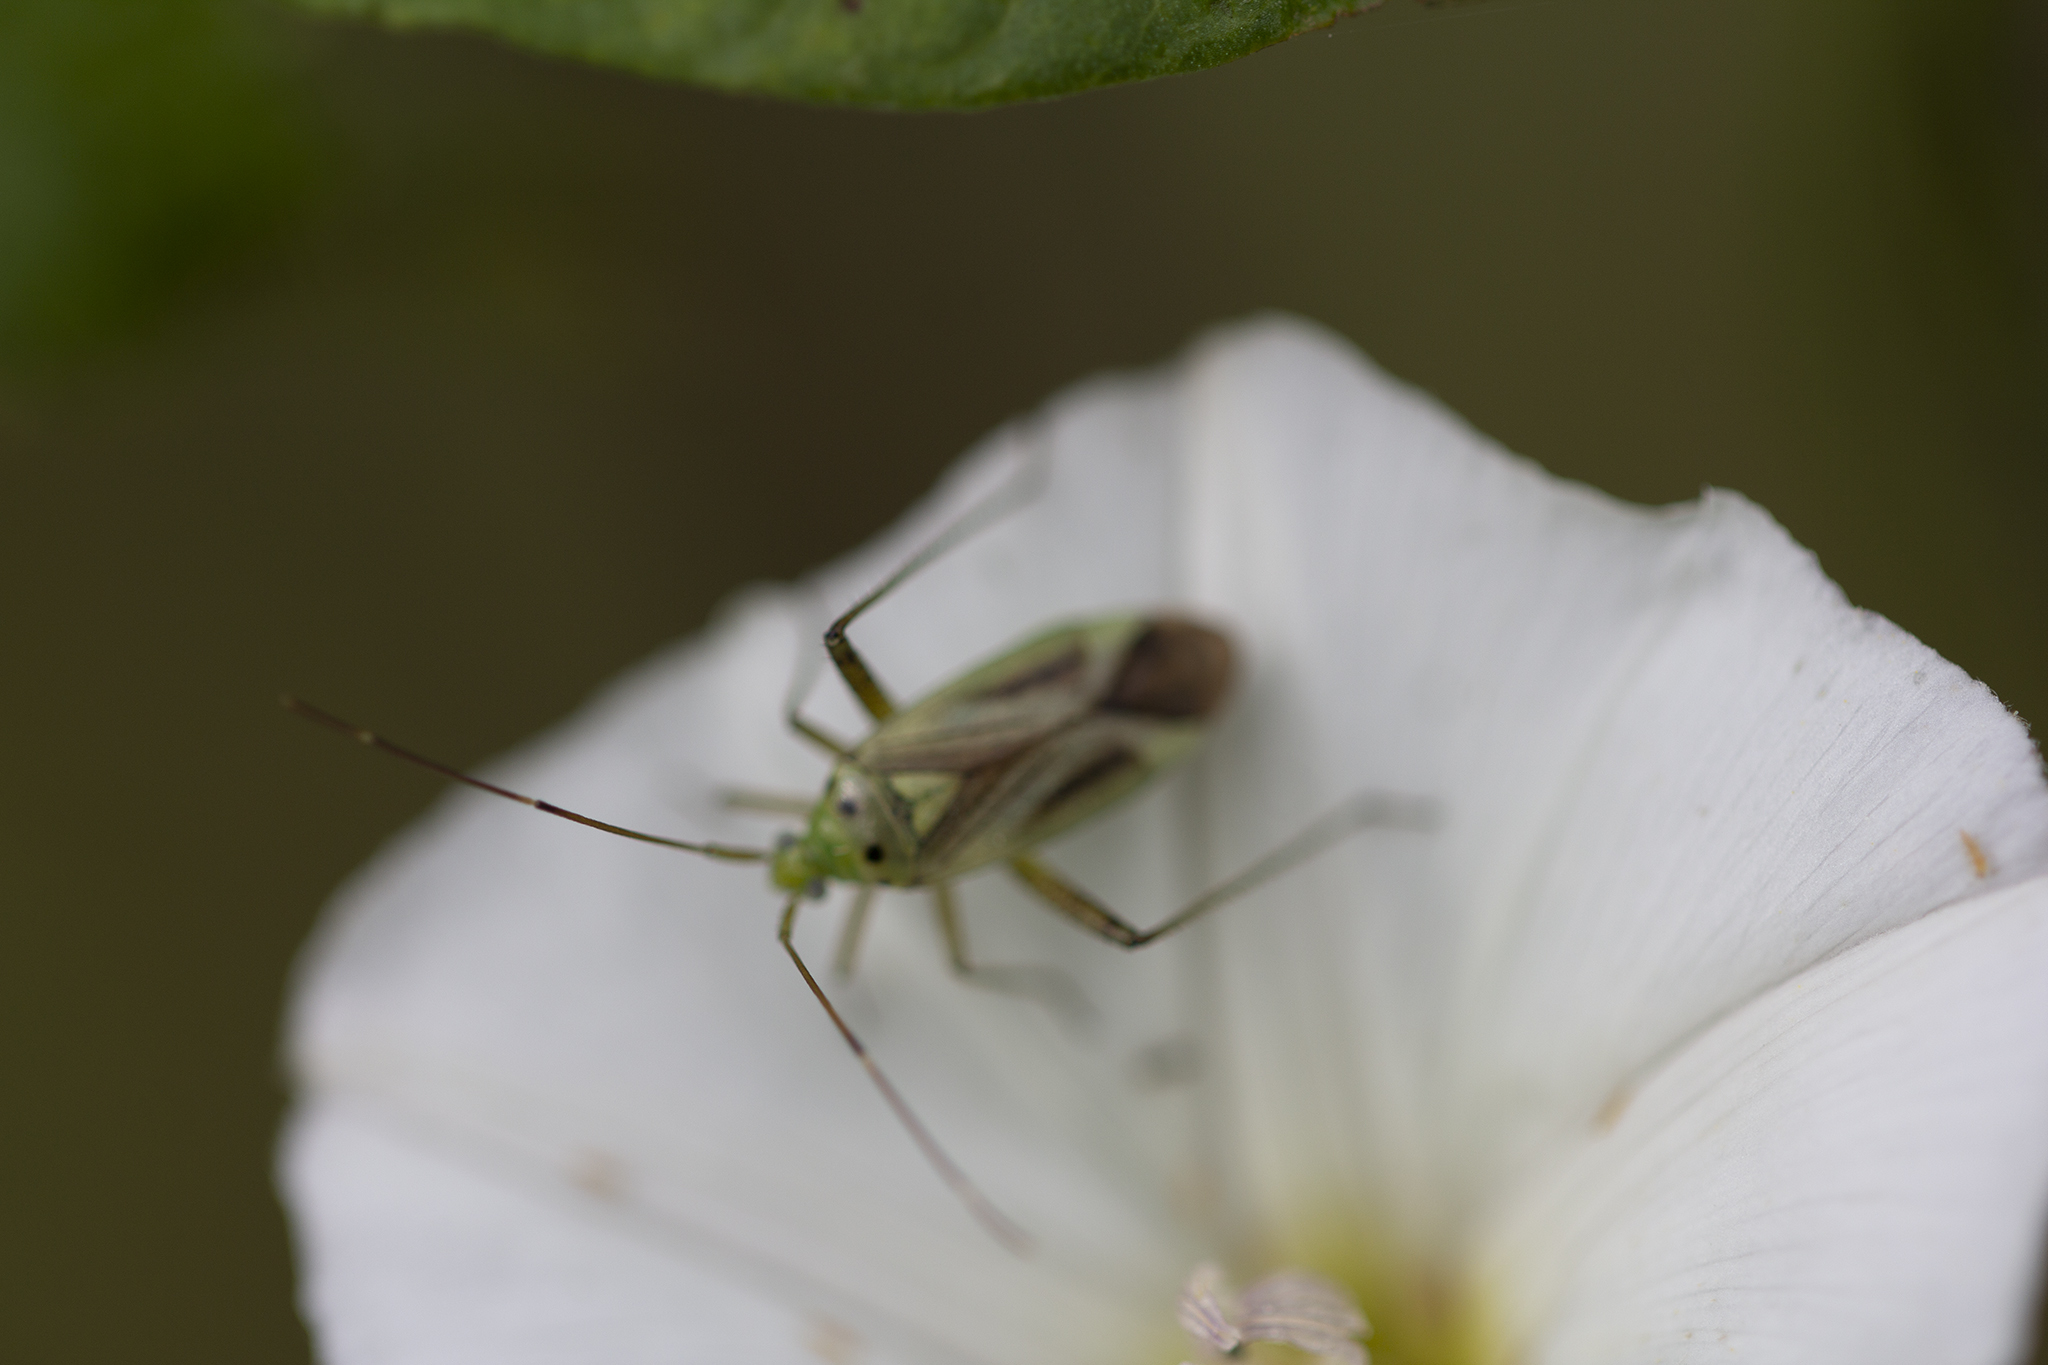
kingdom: Animalia
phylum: Arthropoda
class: Insecta
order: Hemiptera
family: Miridae
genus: Adelphocoris
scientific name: Adelphocoris quadripunctatus
